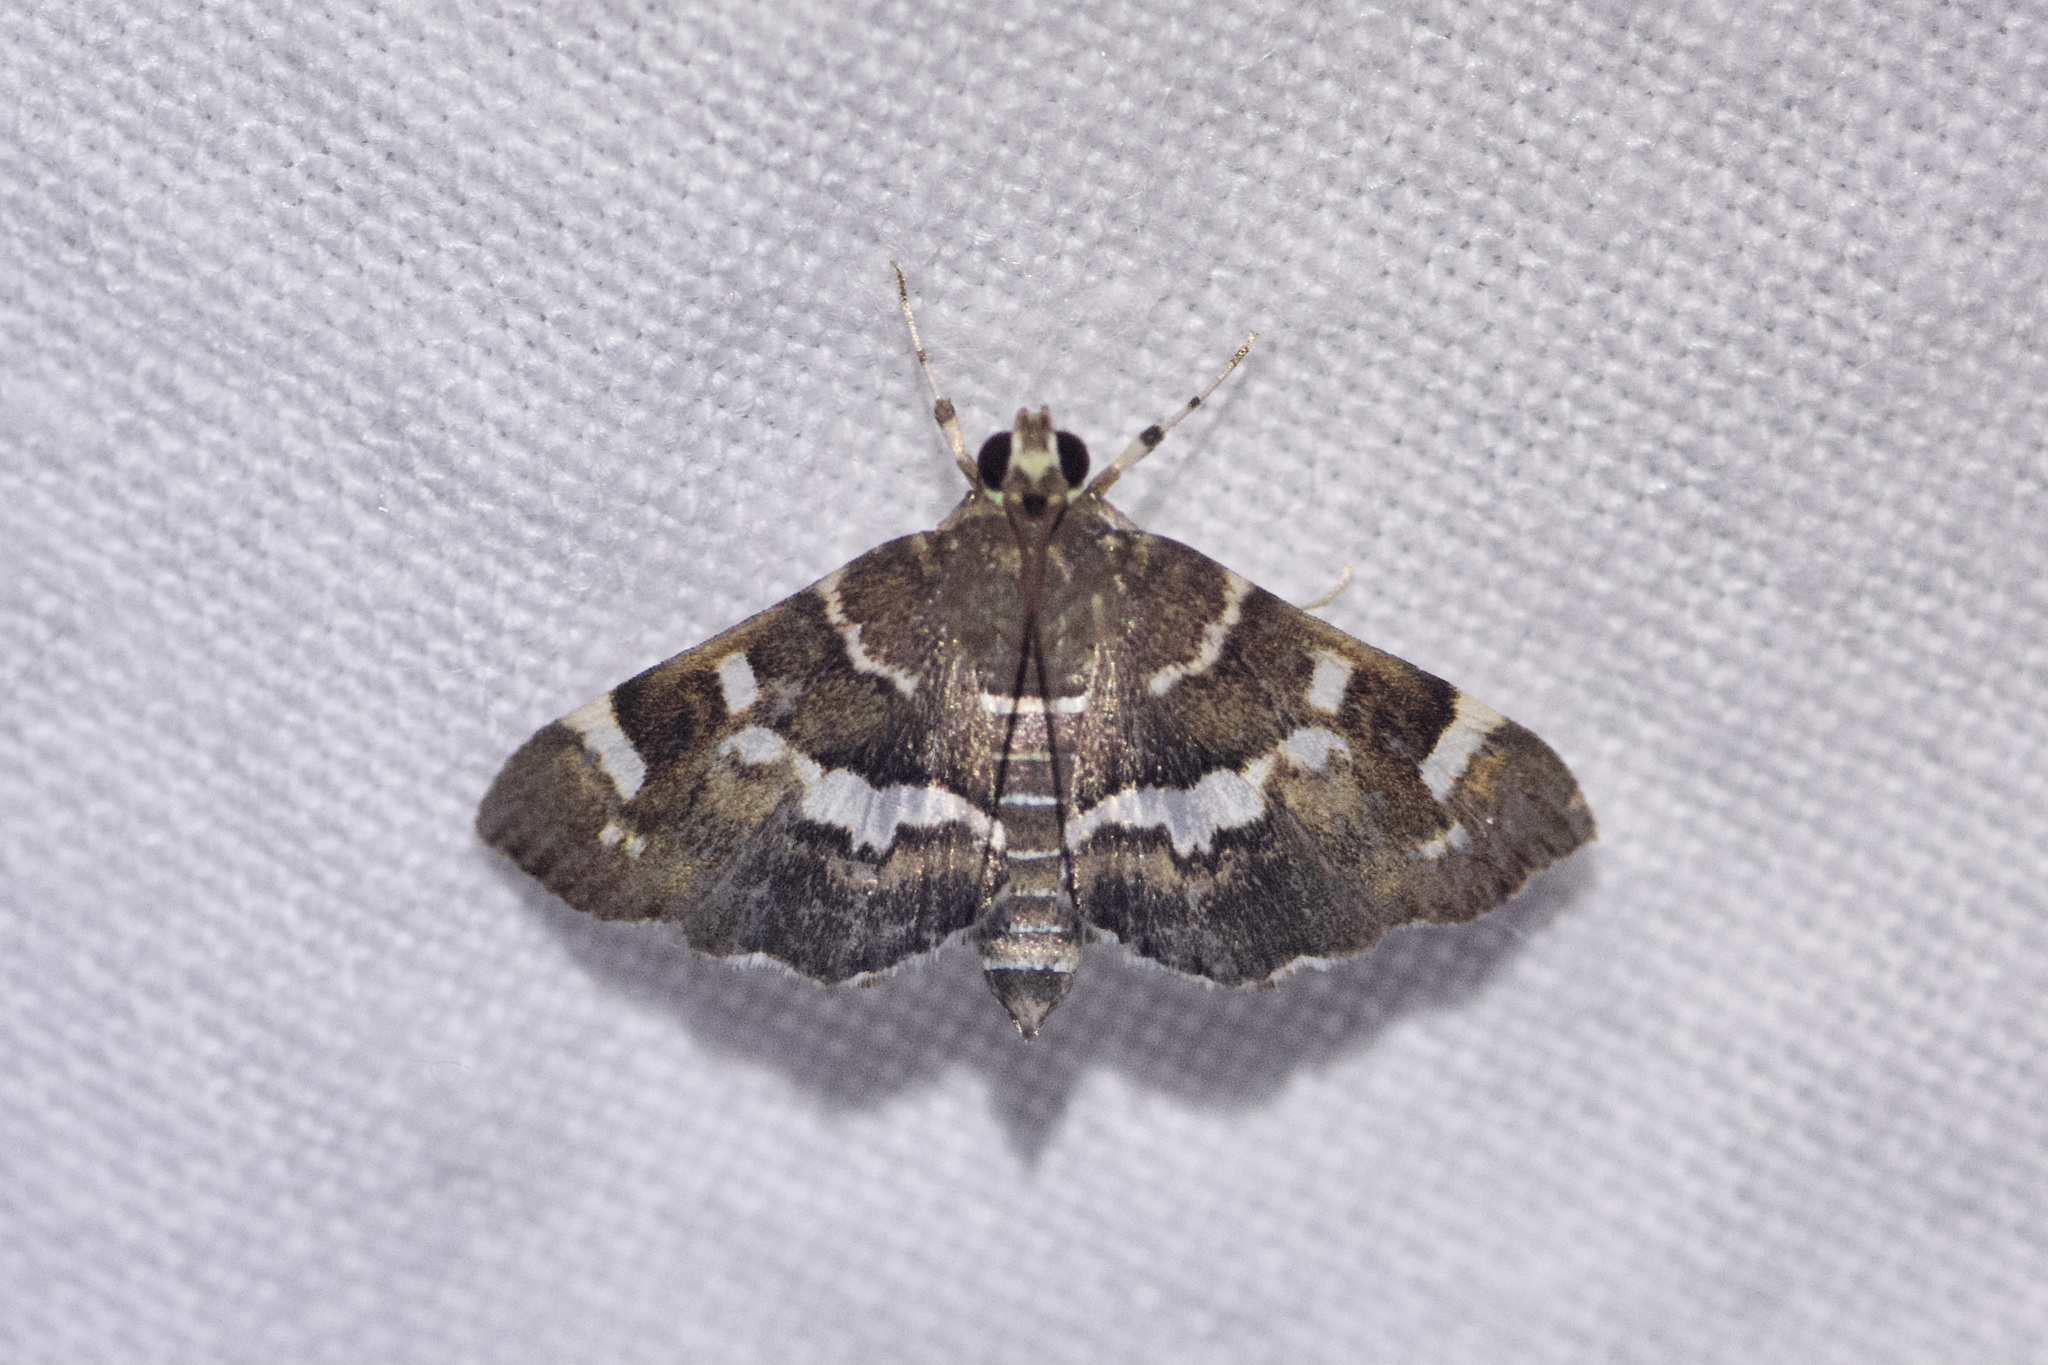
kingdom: Animalia
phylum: Arthropoda
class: Insecta
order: Lepidoptera
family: Crambidae
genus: Hymenia
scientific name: Hymenia perspectalis
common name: Spotted beet webworm
